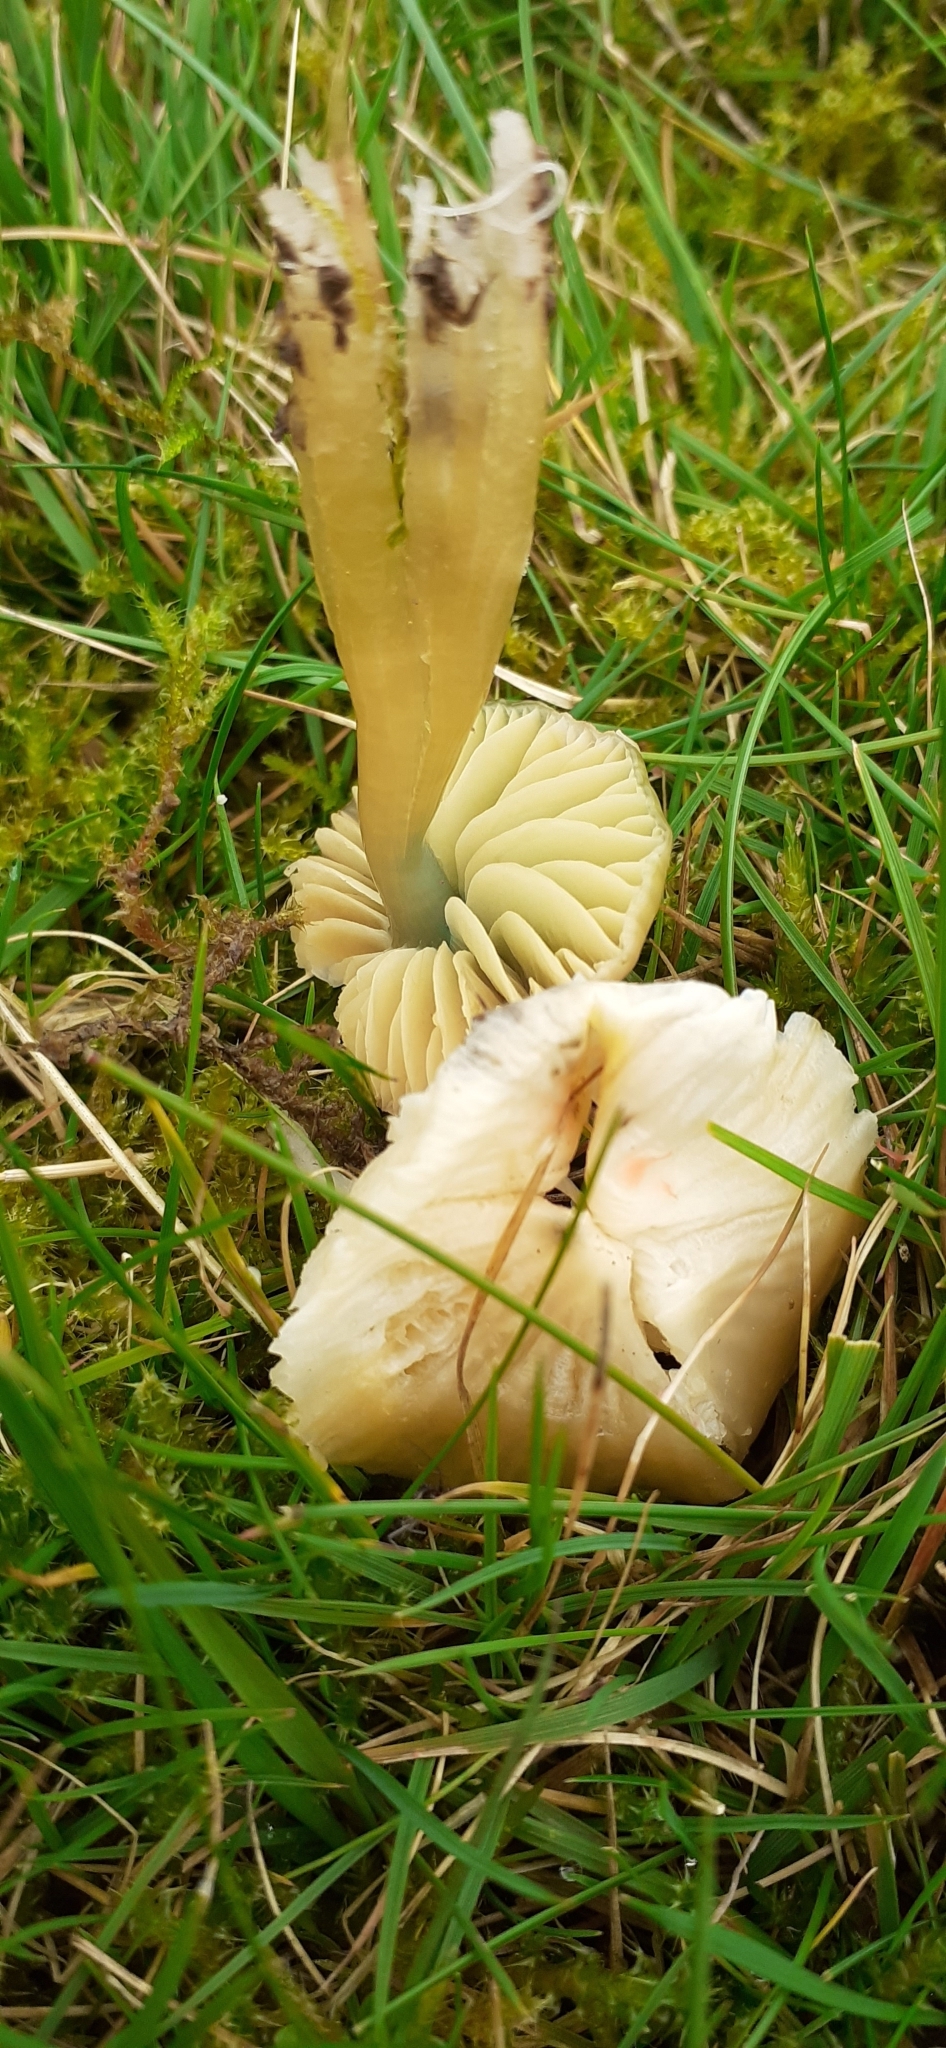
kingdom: Fungi
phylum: Basidiomycota
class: Agaricomycetes
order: Agaricales
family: Hygrophoraceae
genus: Gliophorus
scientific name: Gliophorus psittacinus
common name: Parrot wax-cap
